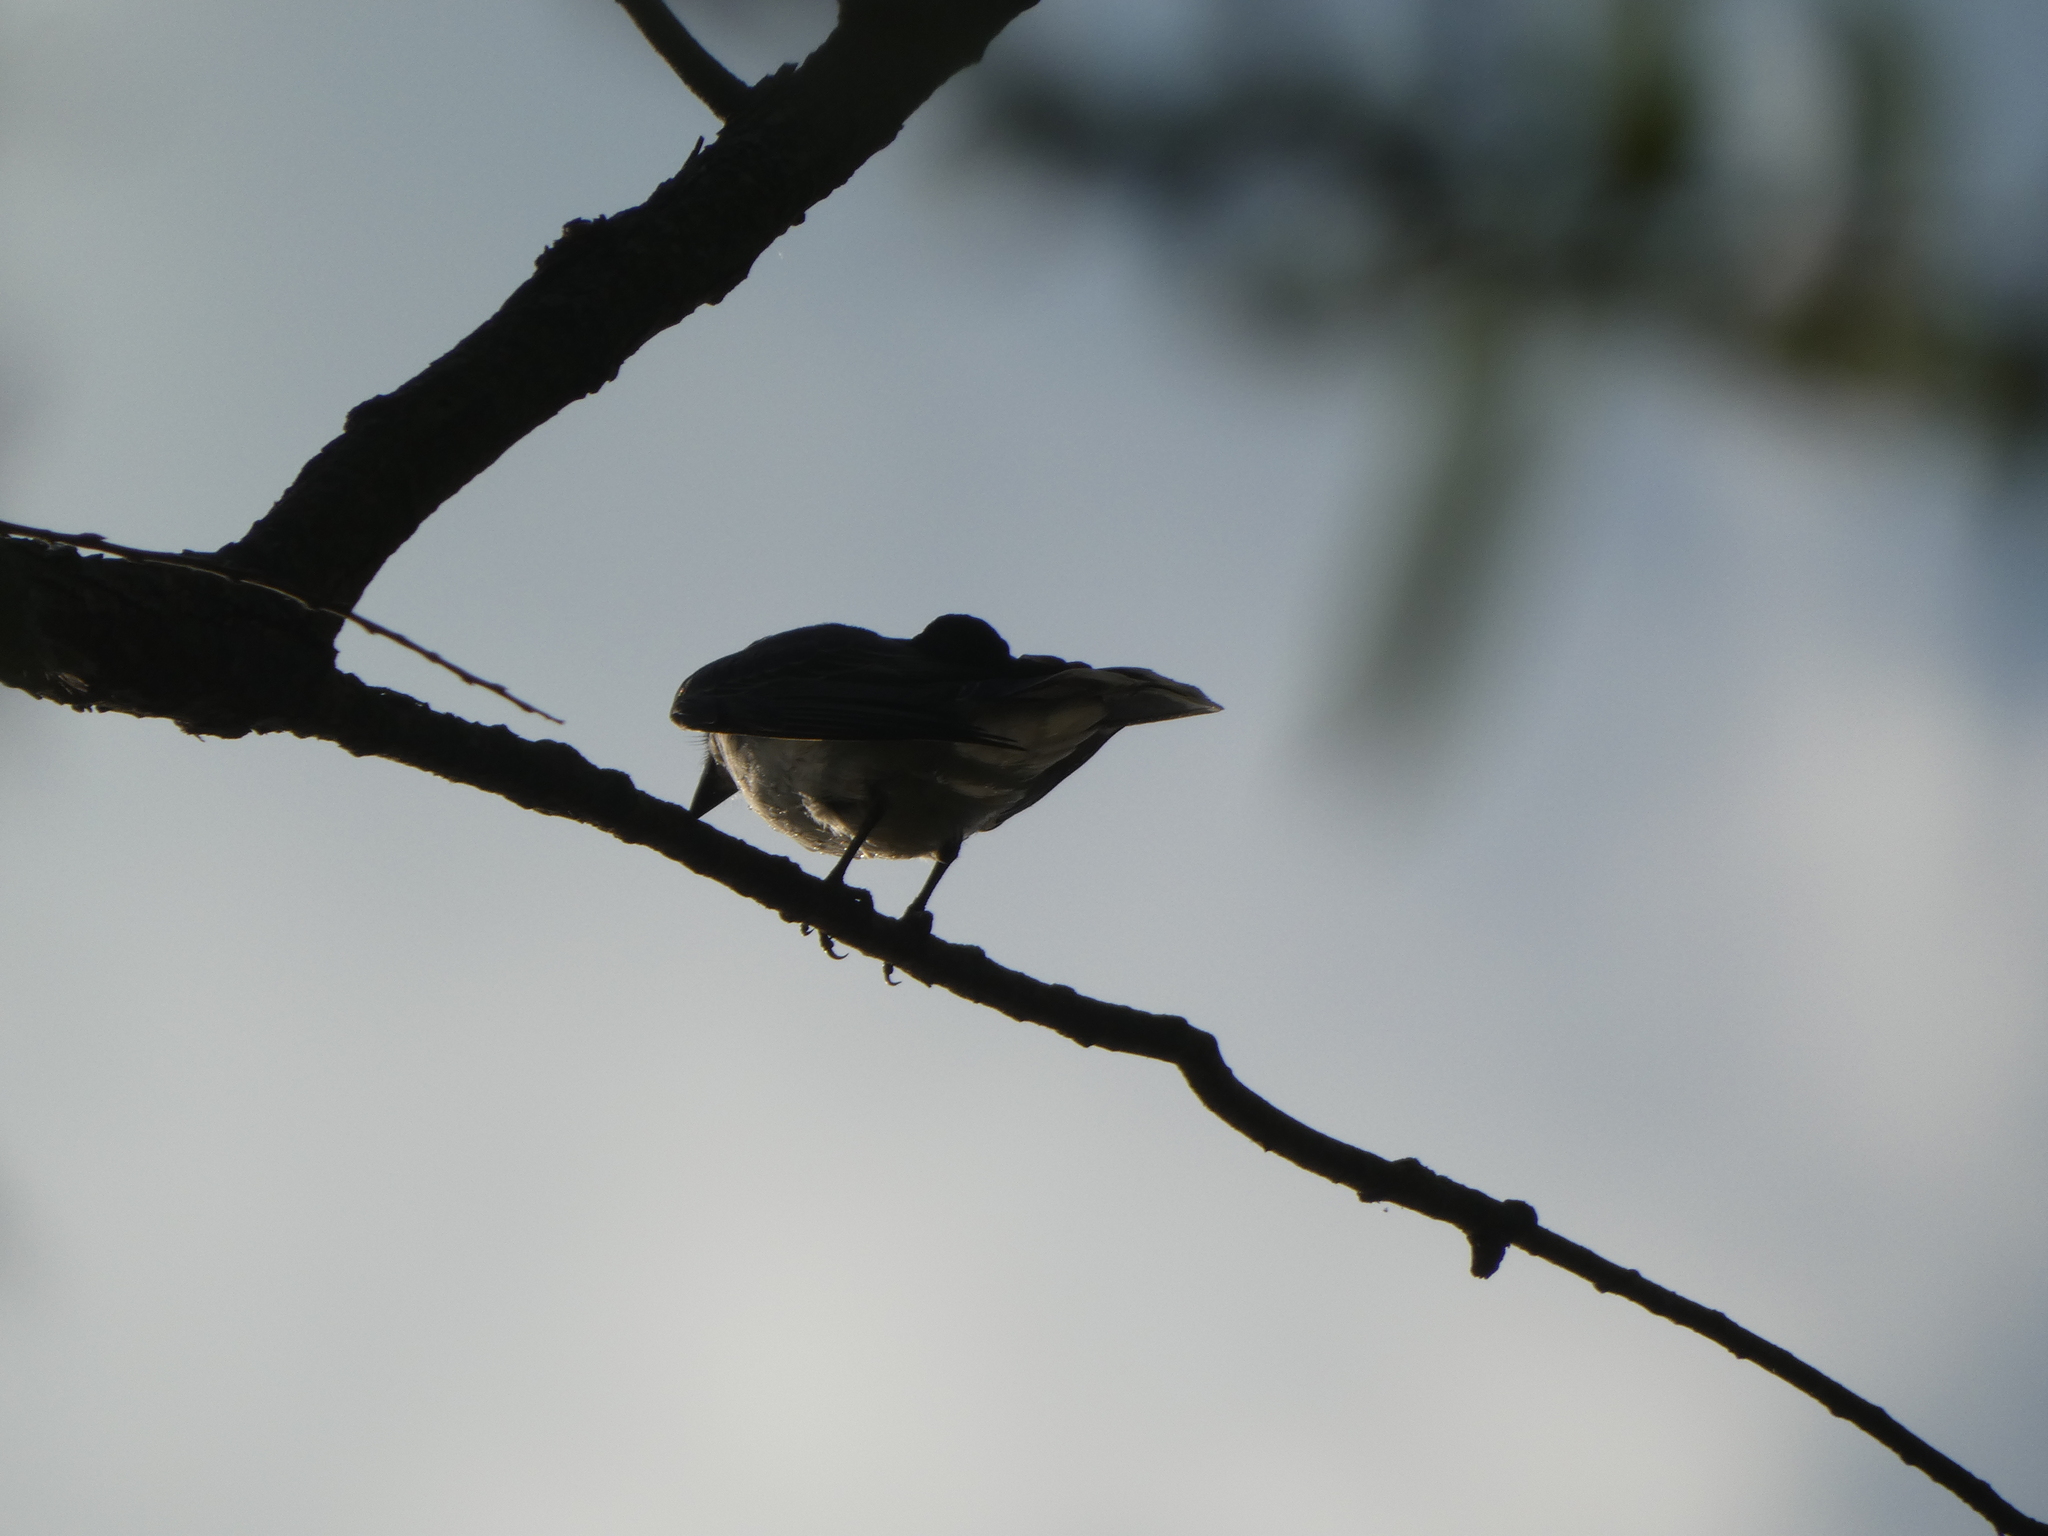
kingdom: Animalia
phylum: Chordata
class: Aves
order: Passeriformes
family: Tyrannidae
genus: Tyrannus
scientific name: Tyrannus tyrannus
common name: Eastern kingbird
